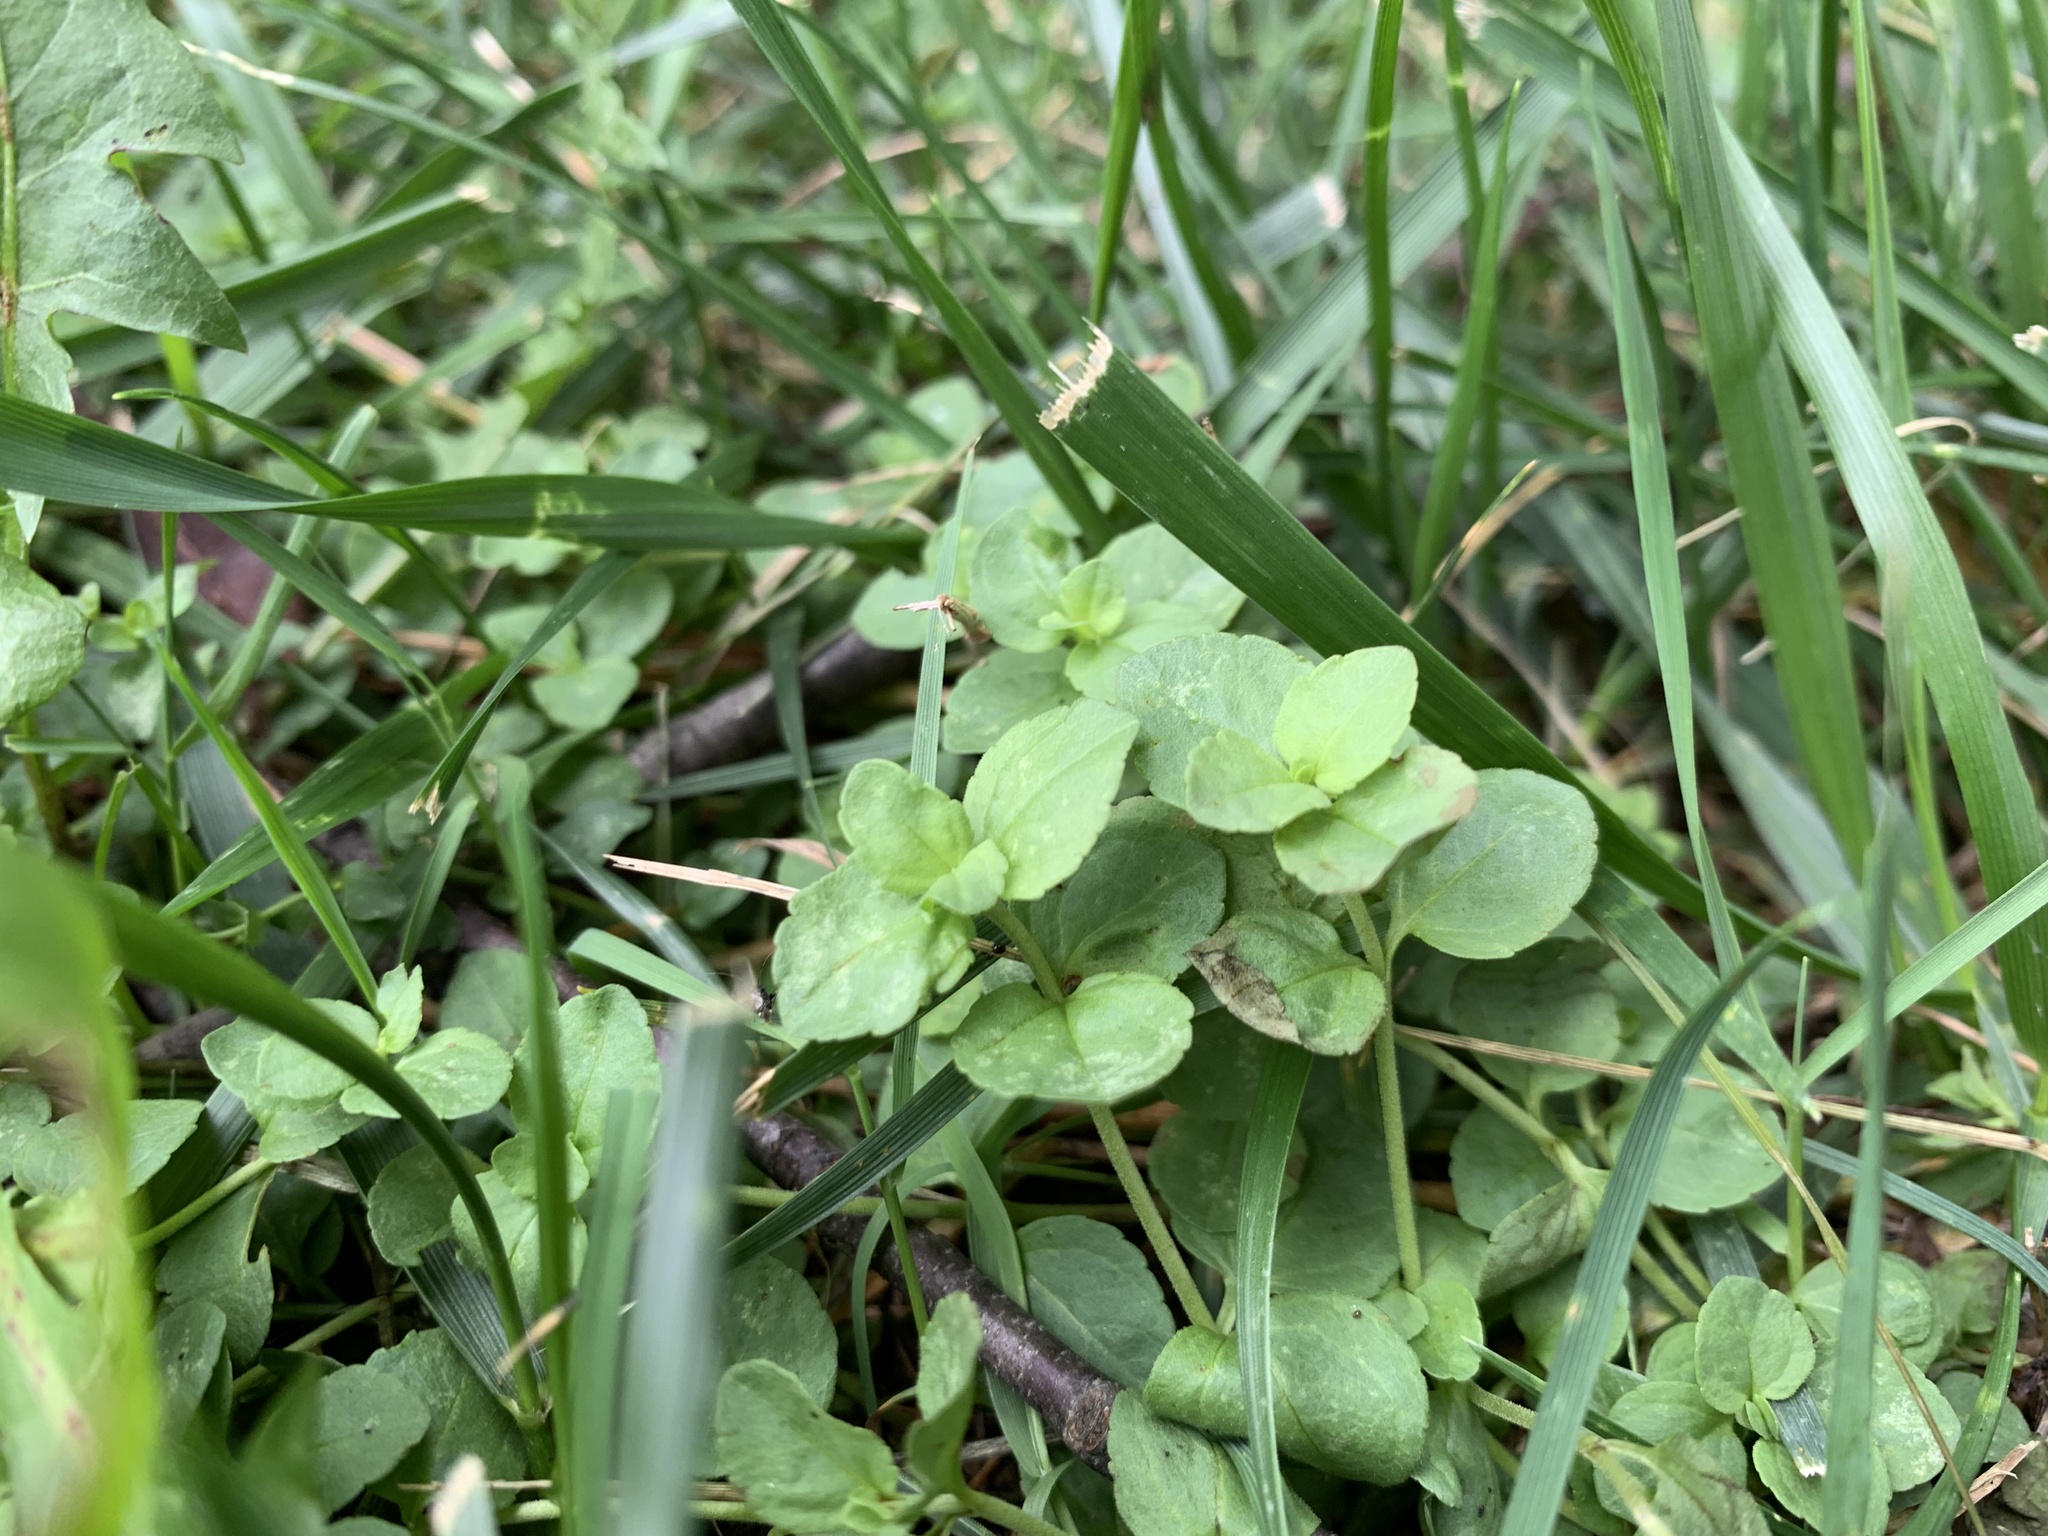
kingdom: Plantae
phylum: Tracheophyta
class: Magnoliopsida
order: Lamiales
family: Plantaginaceae
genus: Veronica
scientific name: Veronica serpyllifolia
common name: Thyme-leaved speedwell
